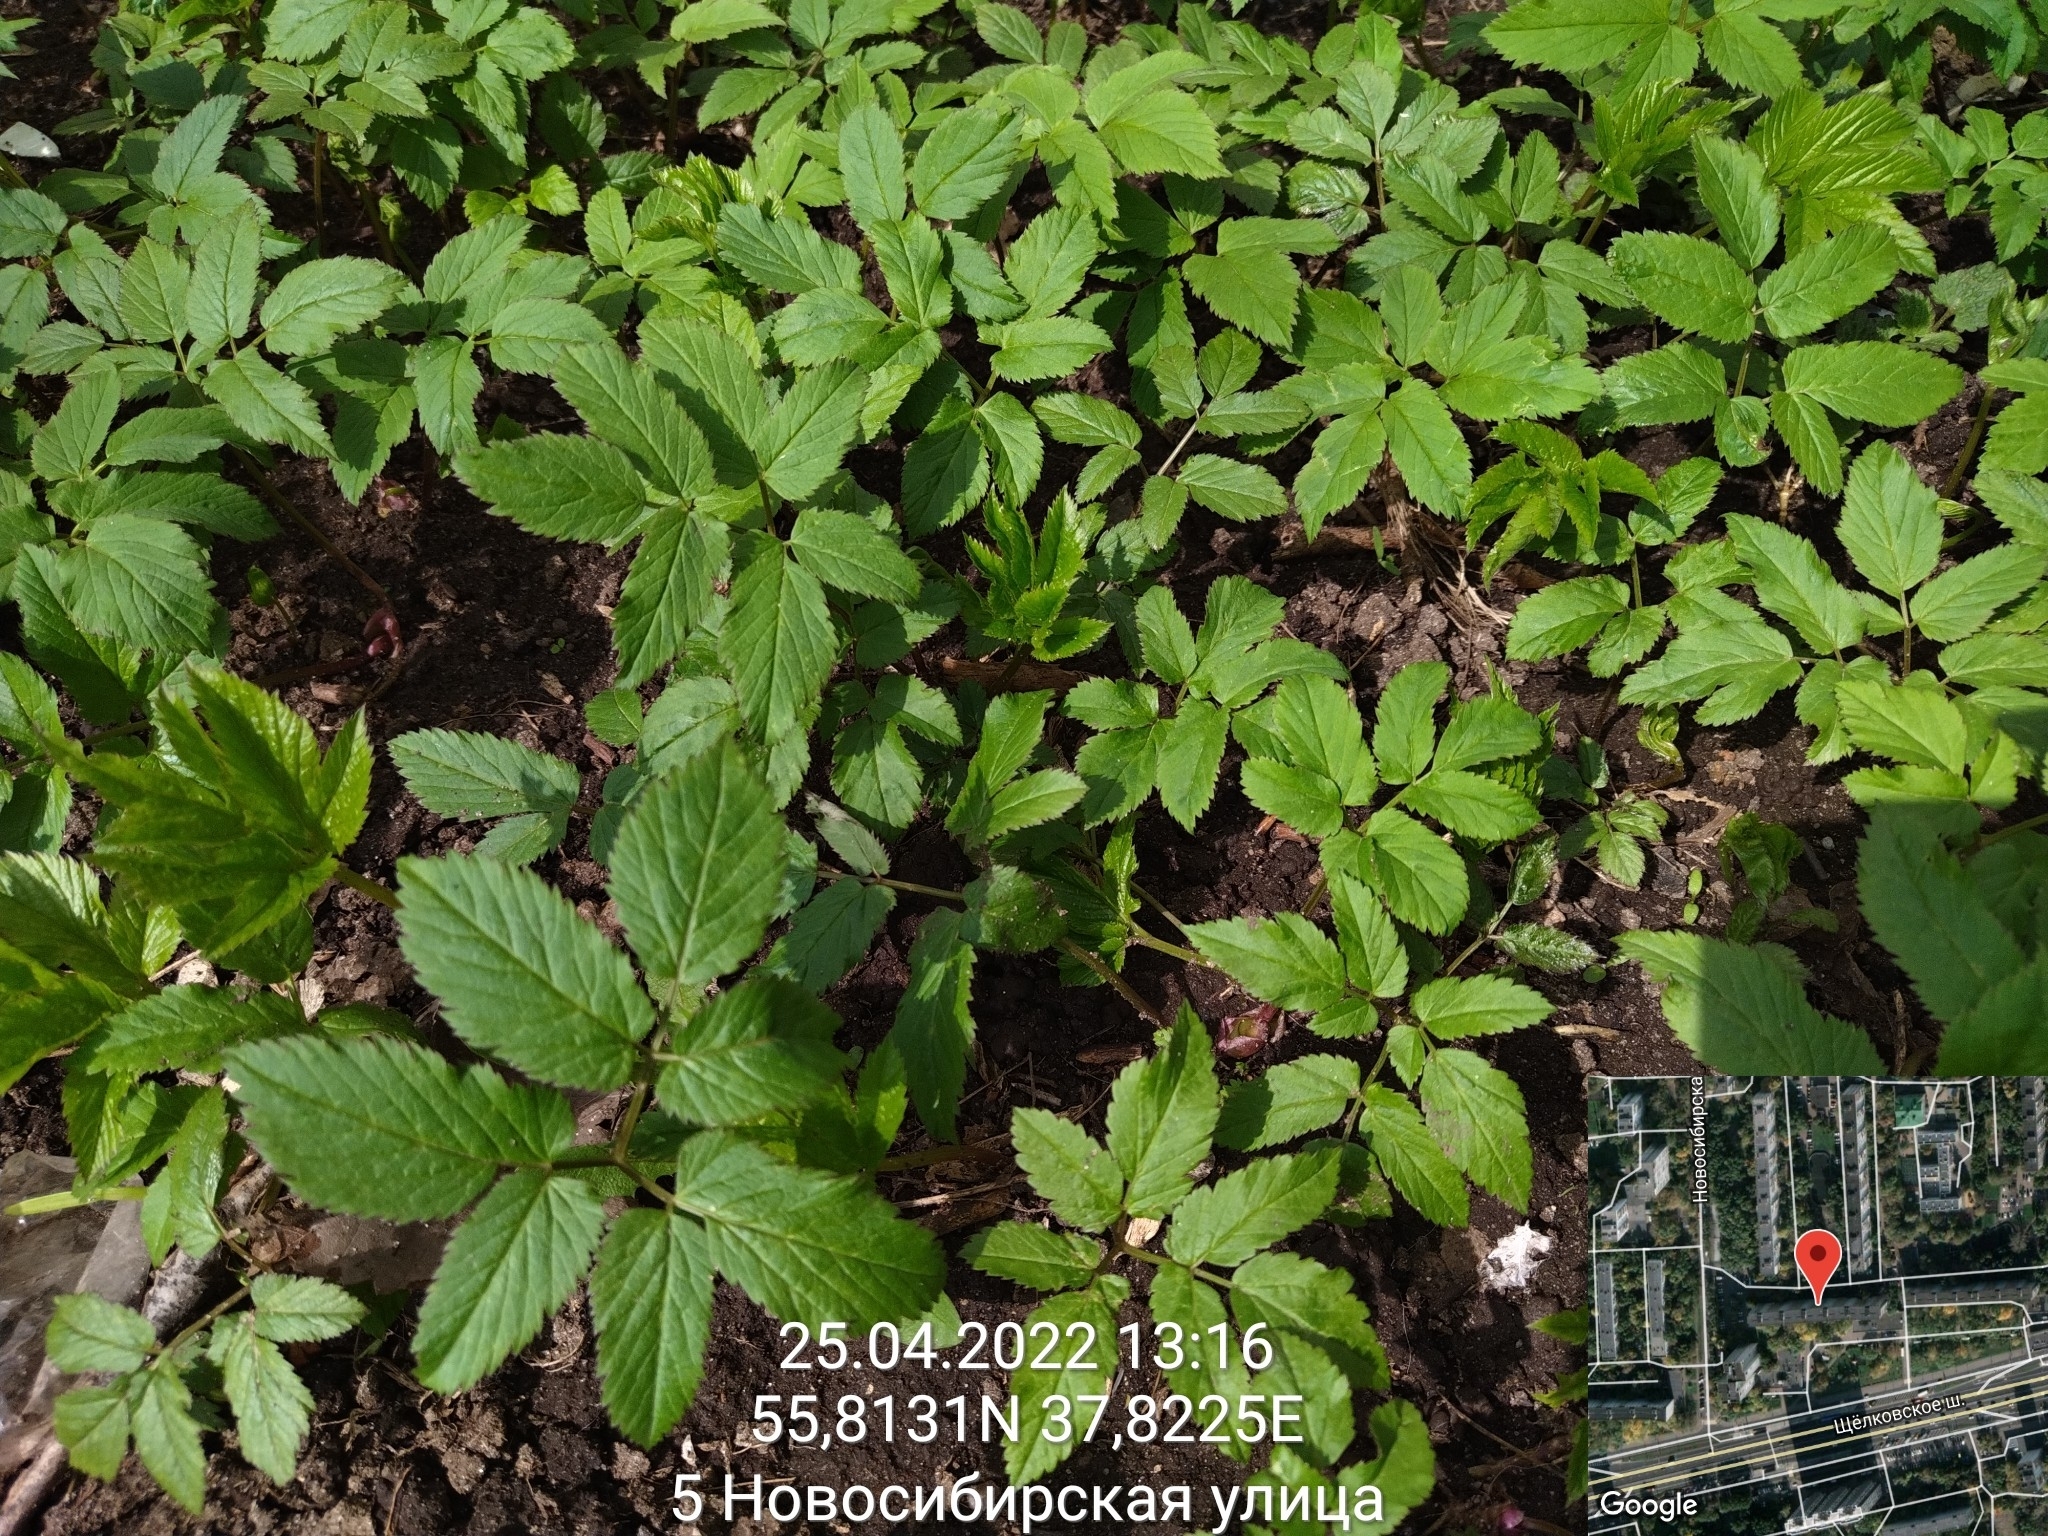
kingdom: Plantae
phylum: Tracheophyta
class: Magnoliopsida
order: Apiales
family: Apiaceae
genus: Aegopodium
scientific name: Aegopodium podagraria
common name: Ground-elder
